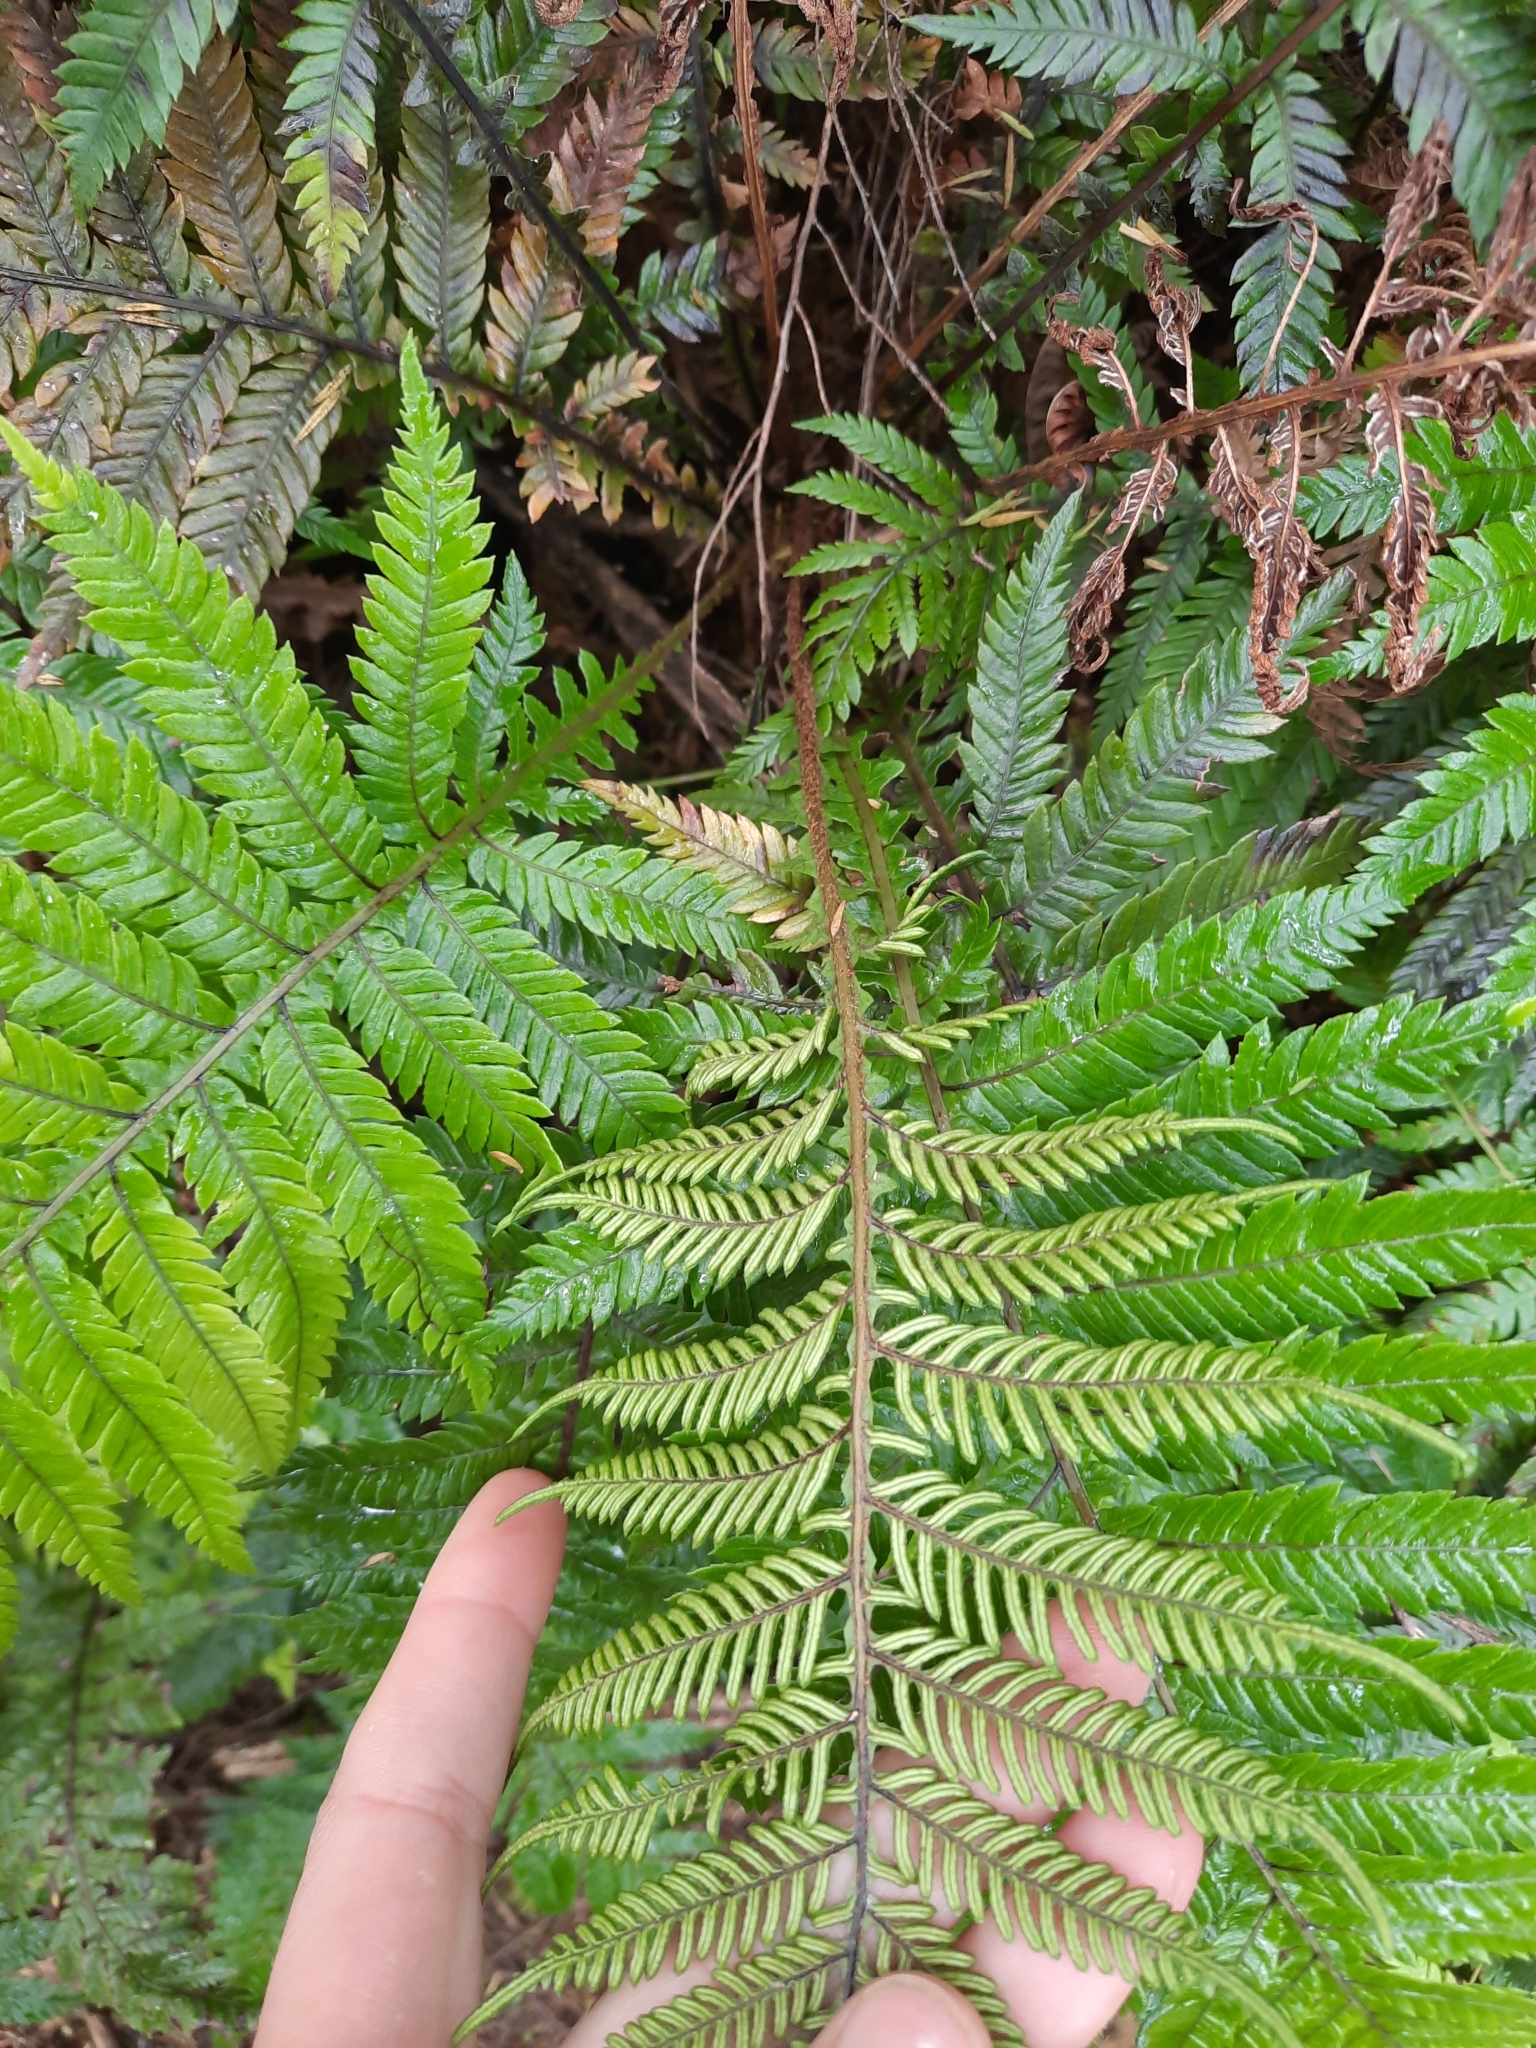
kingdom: Plantae
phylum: Tracheophyta
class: Polypodiopsida
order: Polypodiales
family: Blechnaceae
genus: Diploblechnum
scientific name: Diploblechnum fraseri
